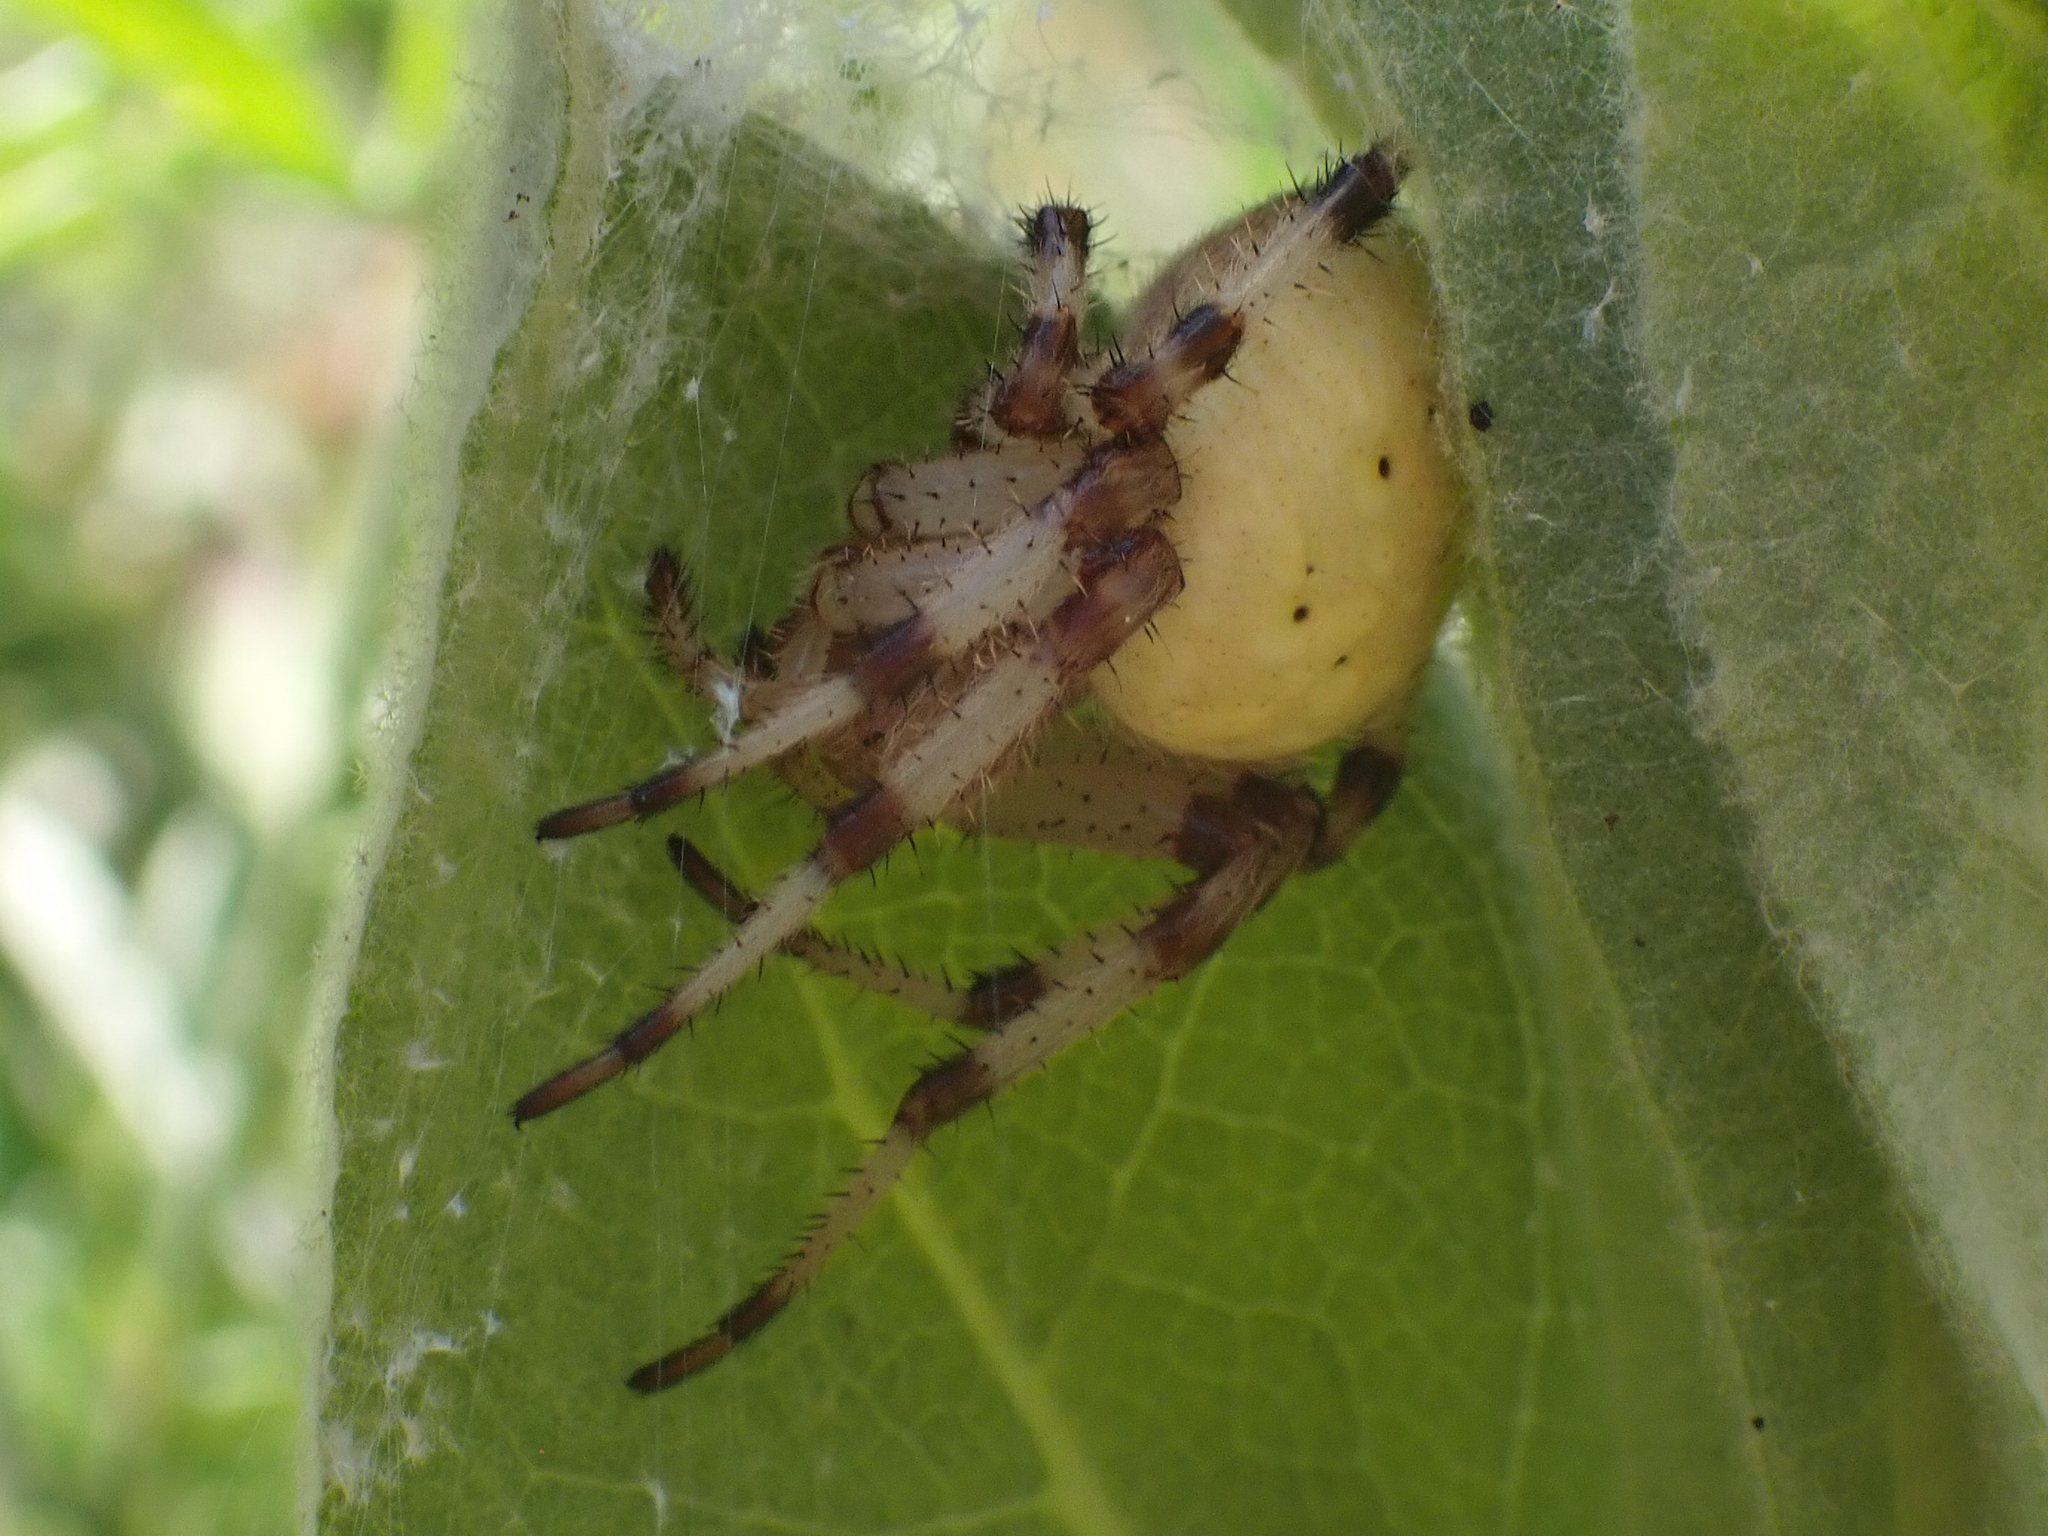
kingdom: Animalia
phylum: Arthropoda
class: Arachnida
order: Araneae
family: Araneidae
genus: Araneus
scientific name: Araneus trifolium
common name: Shamrock orbweaver
